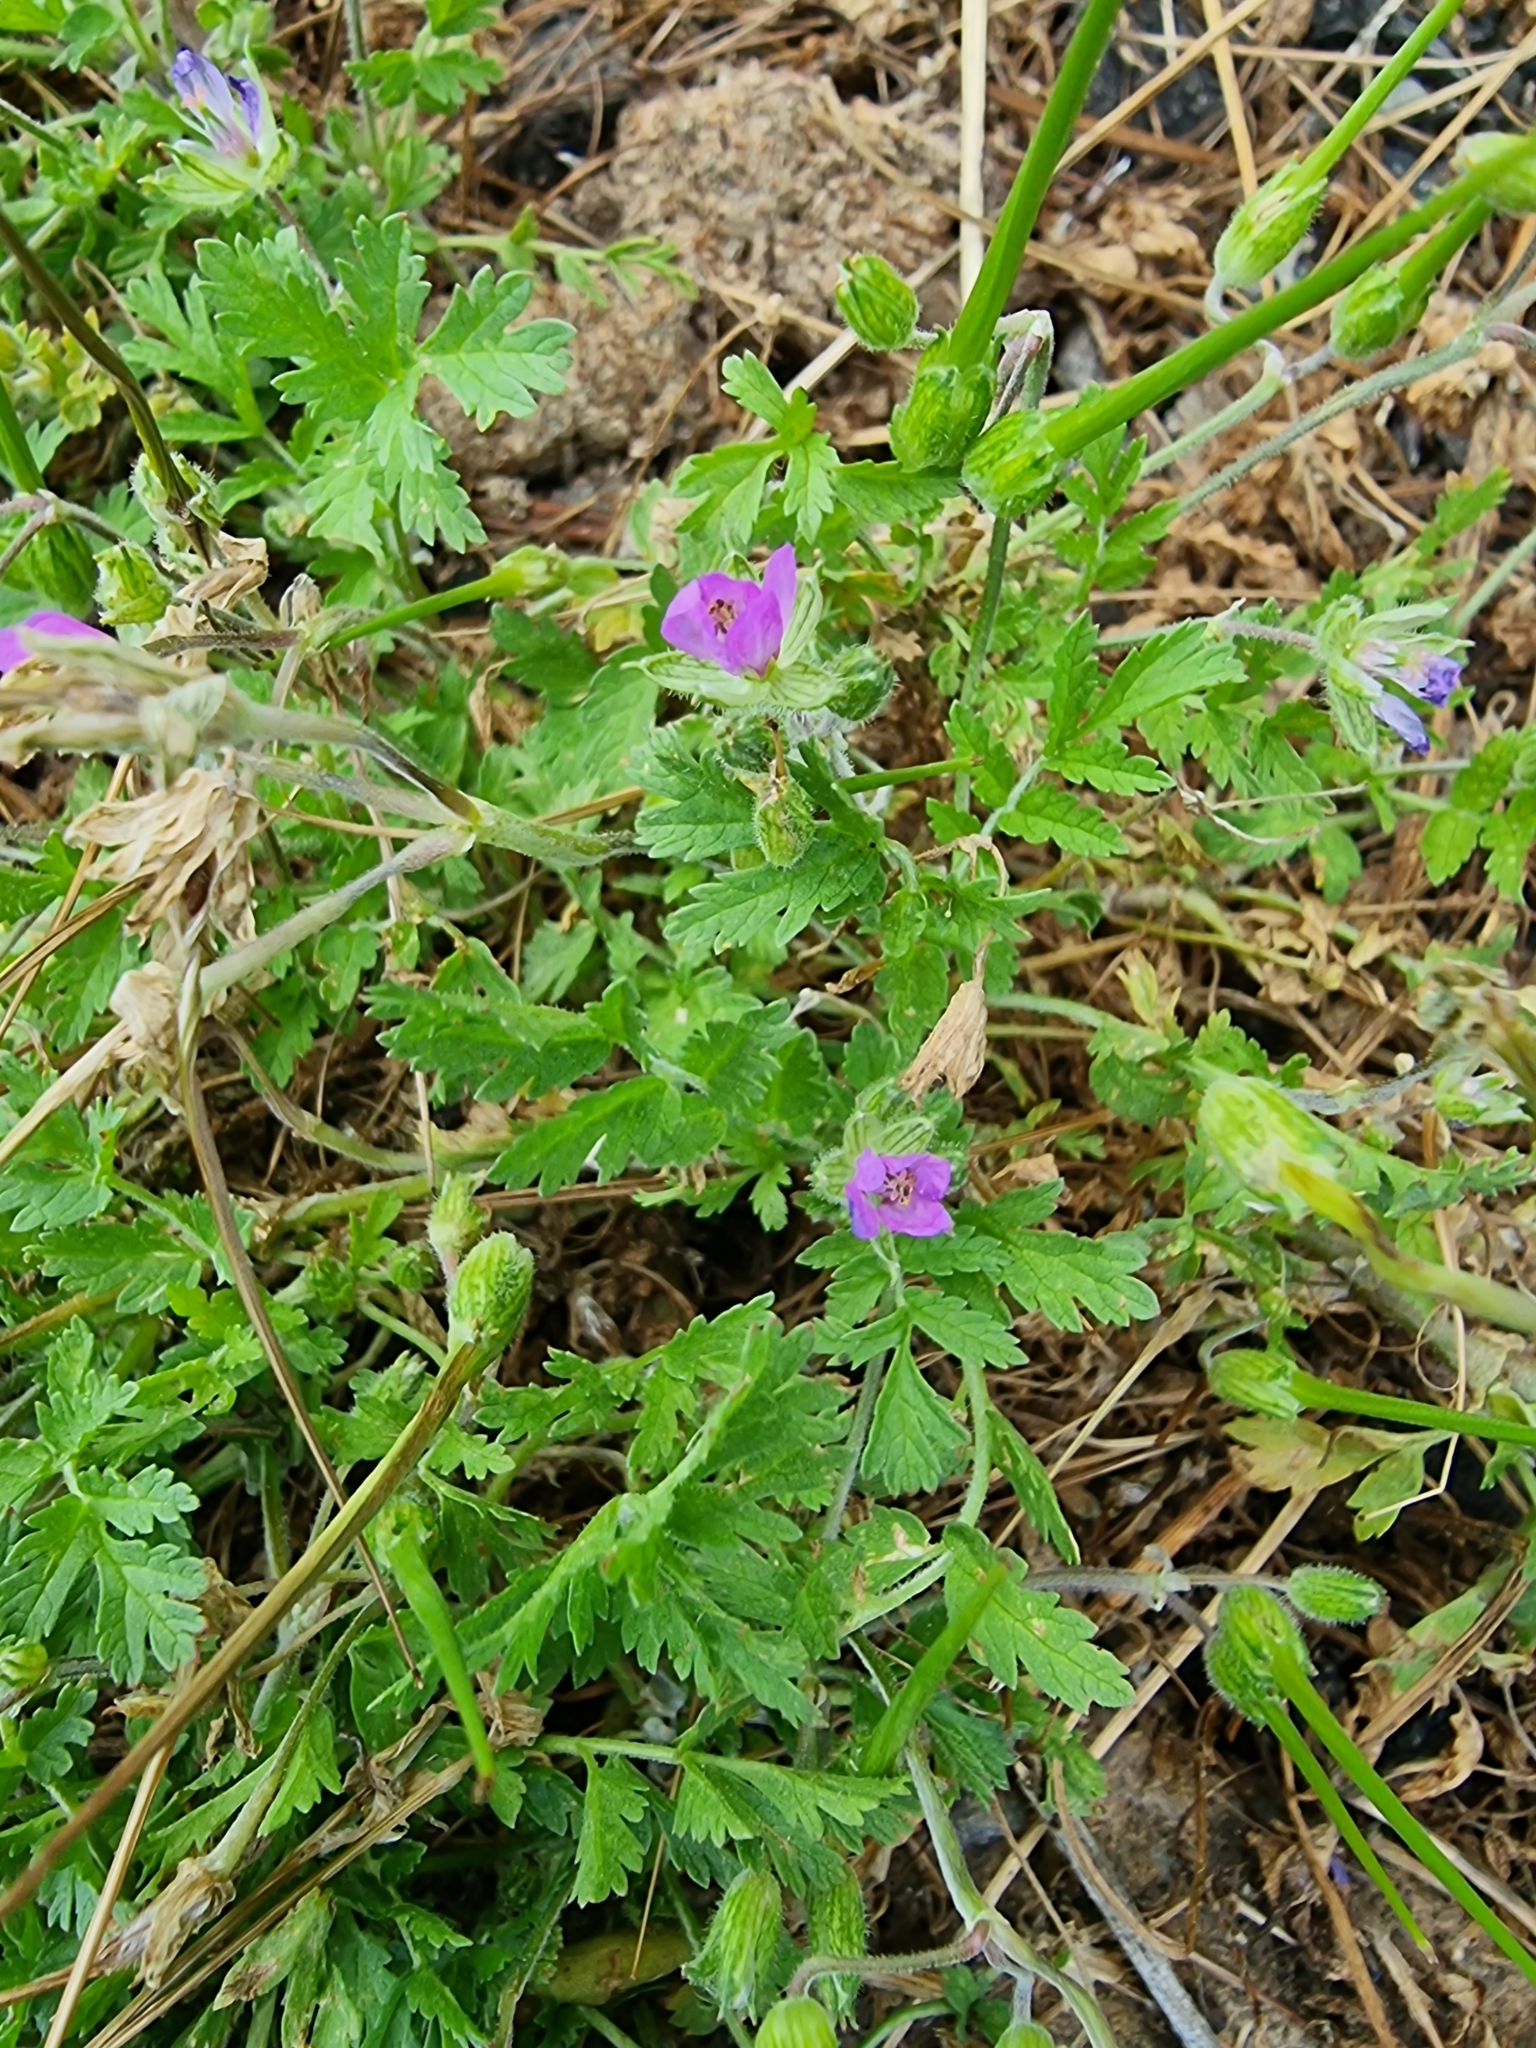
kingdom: Plantae
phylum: Tracheophyta
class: Magnoliopsida
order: Geraniales
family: Geraniaceae
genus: Erodium
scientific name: Erodium moschatum
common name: Musk stork's-bill
